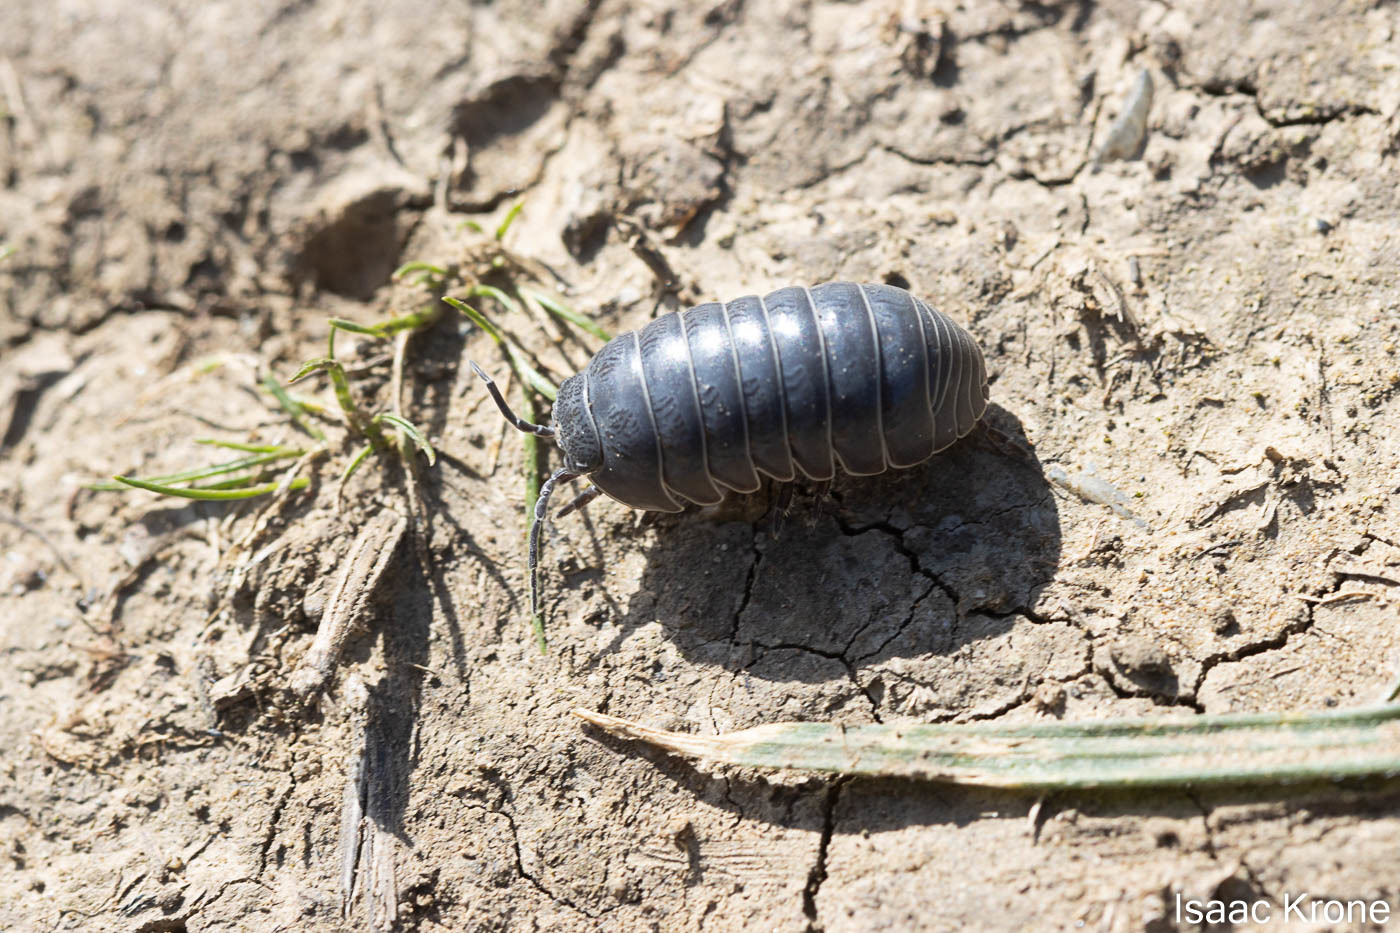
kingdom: Animalia
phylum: Arthropoda
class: Malacostraca
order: Isopoda
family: Armadillidiidae
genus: Armadillidium
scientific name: Armadillidium vulgare
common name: Common pill woodlouse
